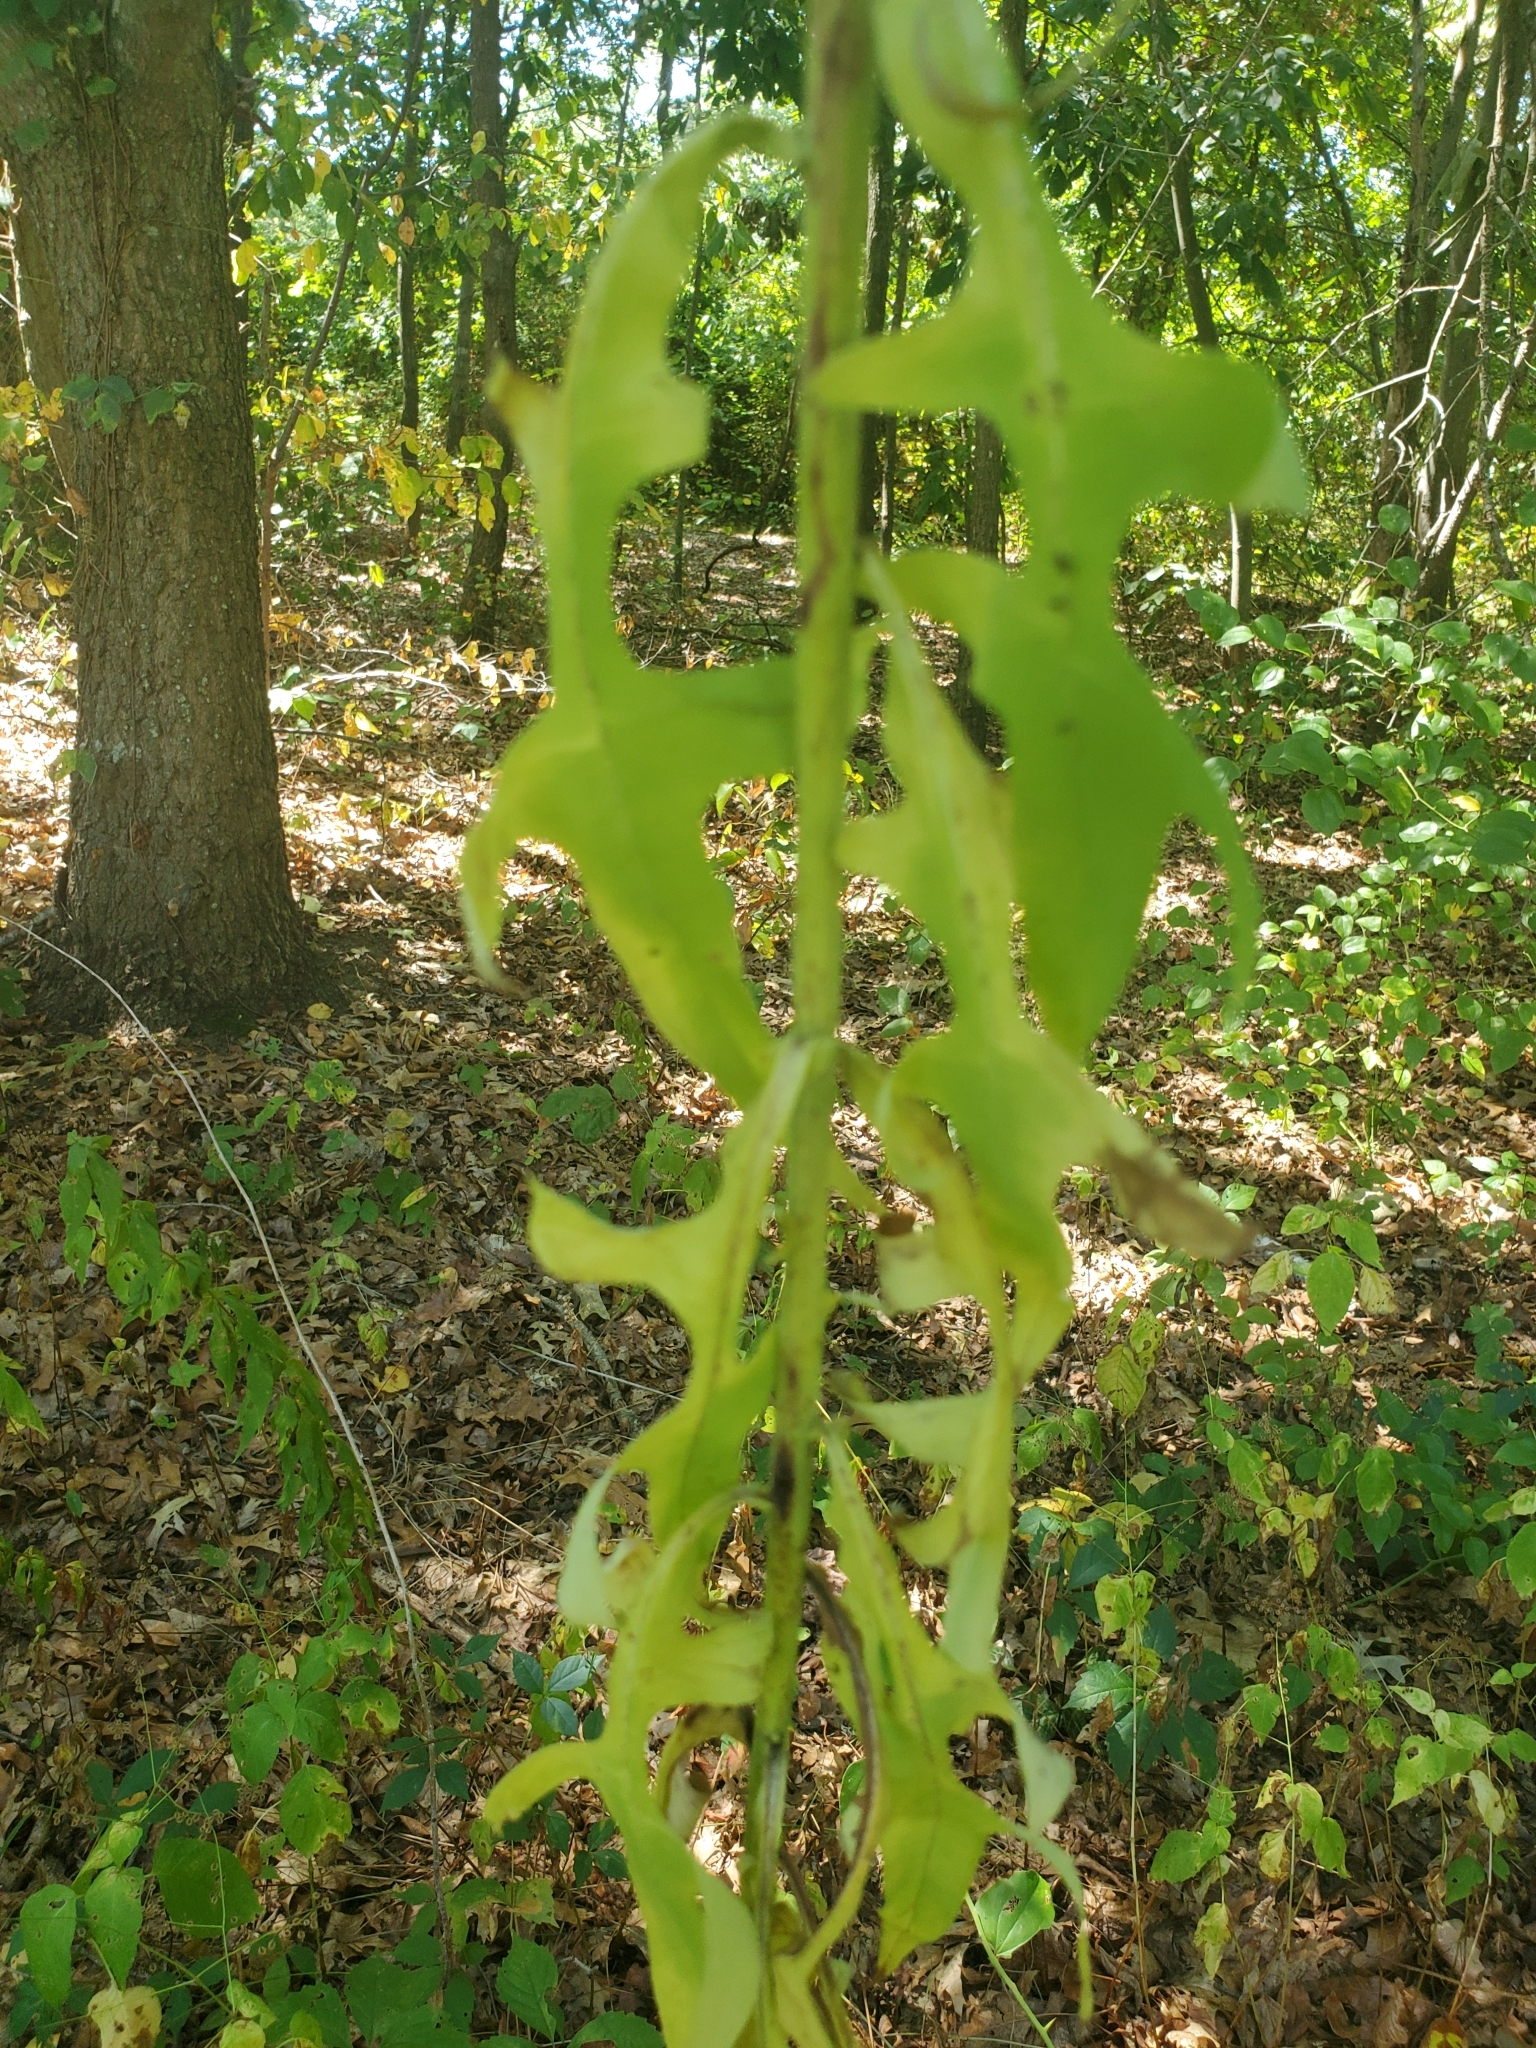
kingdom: Plantae
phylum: Tracheophyta
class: Magnoliopsida
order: Asterales
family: Asteraceae
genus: Lactuca
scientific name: Lactuca canadensis
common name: Canada lettuce
